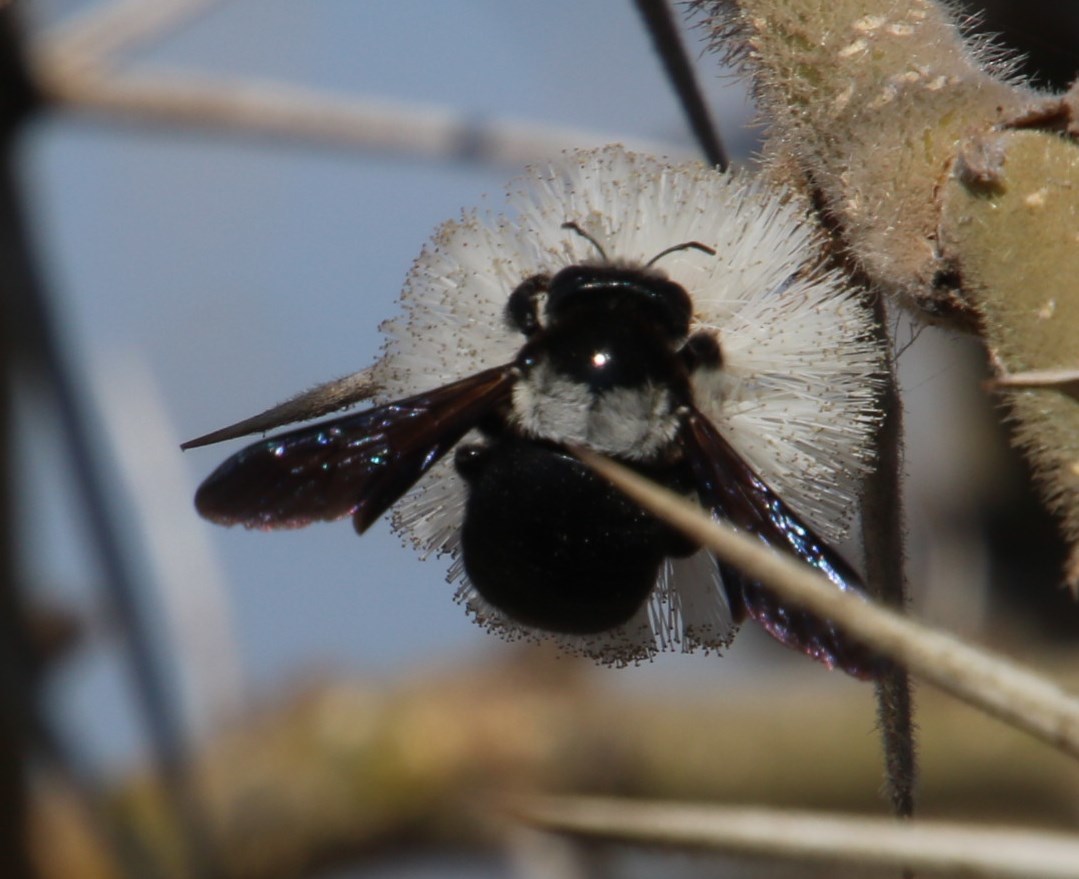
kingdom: Animalia
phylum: Arthropoda
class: Insecta
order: Hymenoptera
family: Apidae
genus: Xylocopa
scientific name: Xylocopa flavicollis
